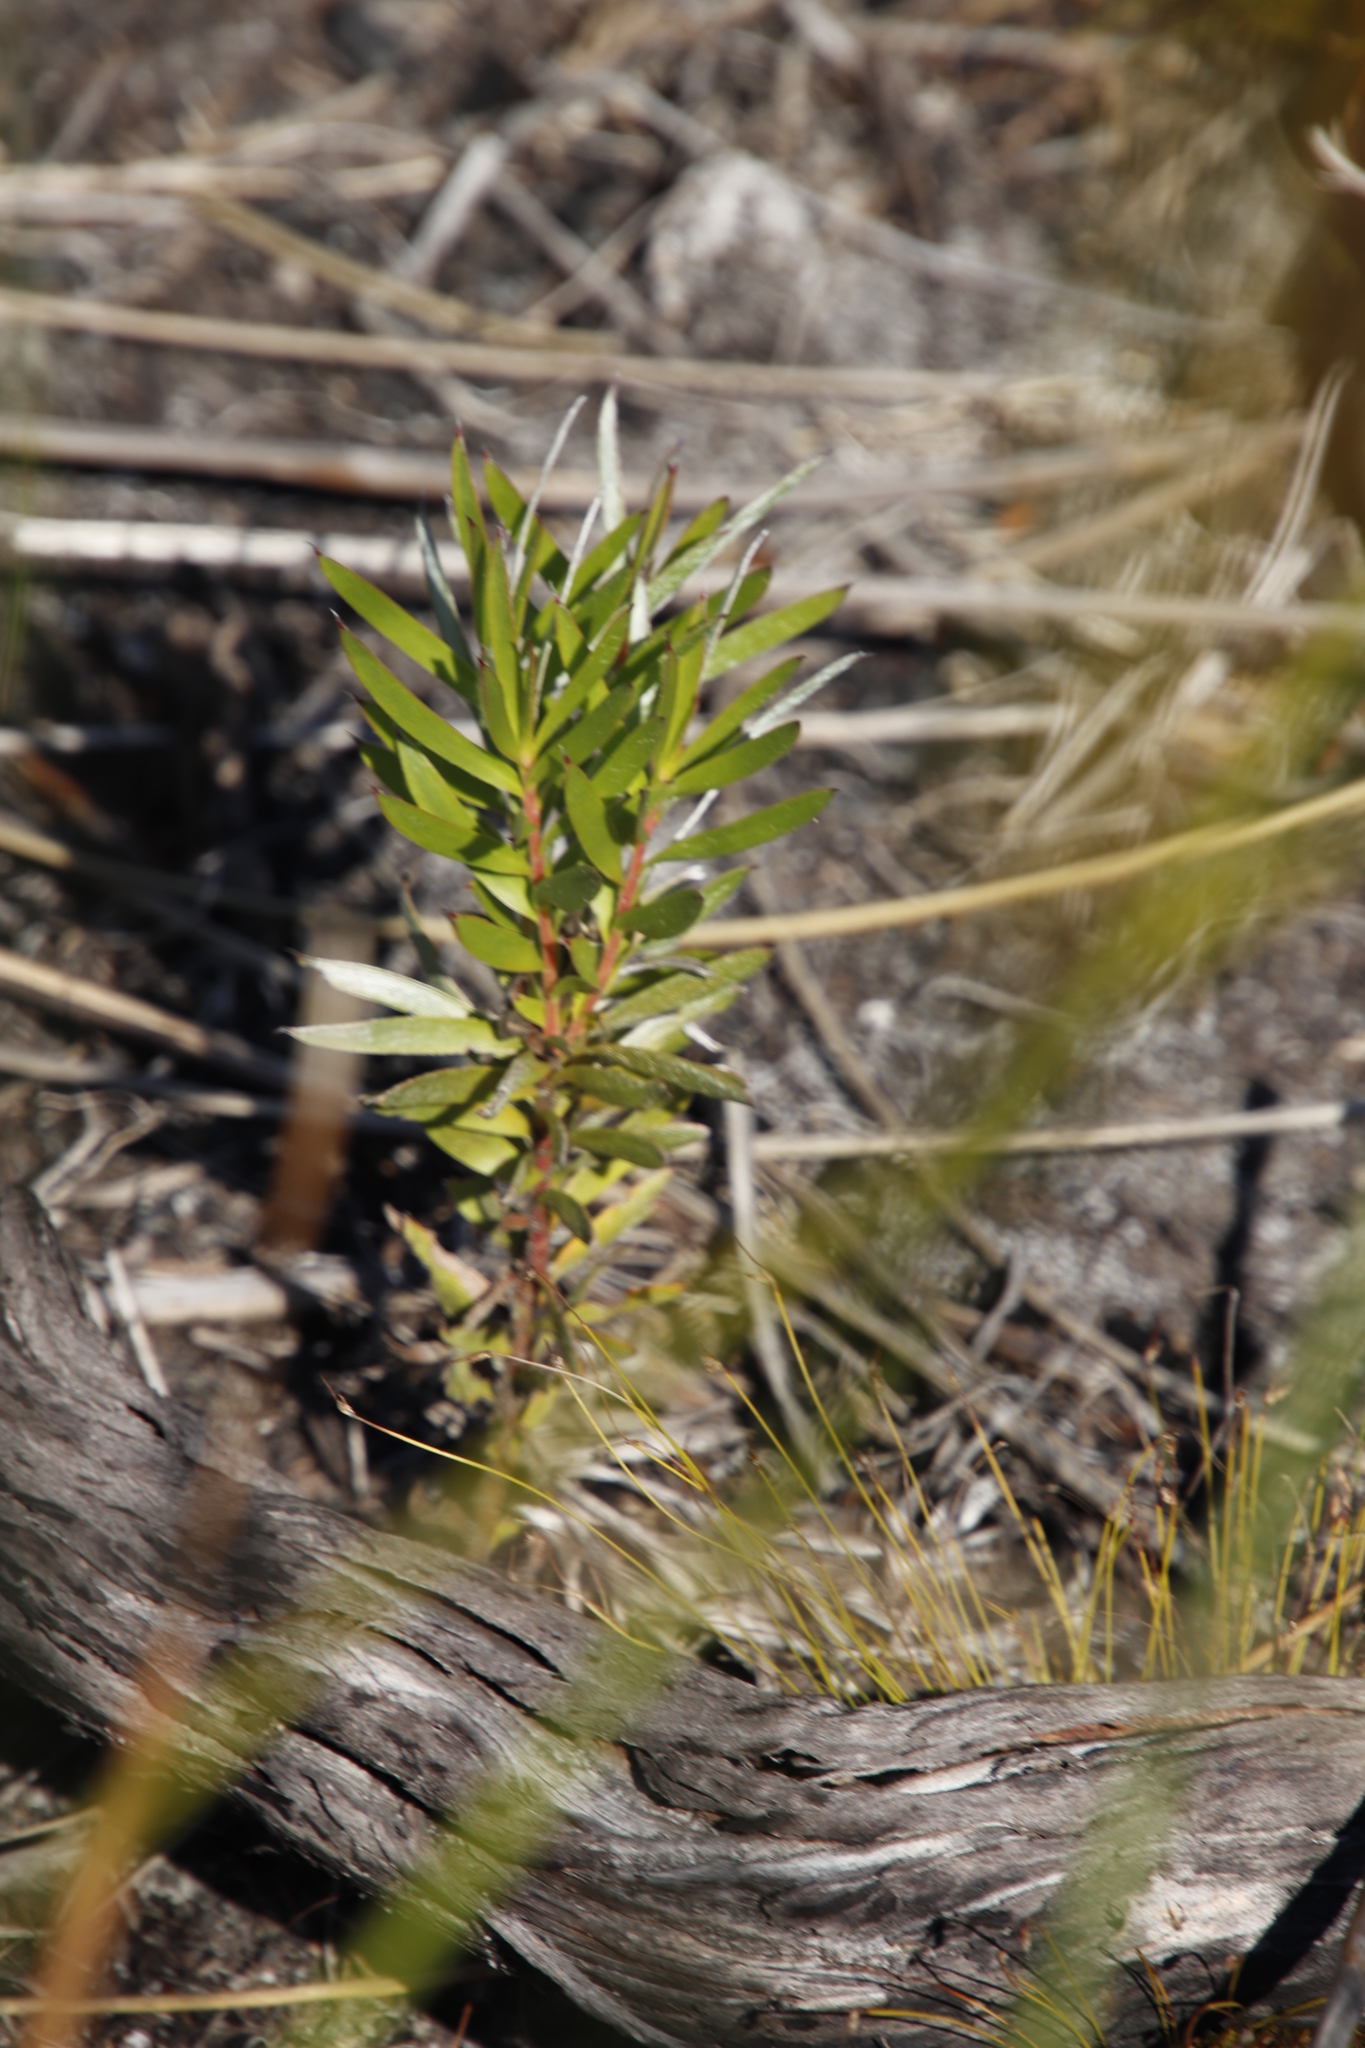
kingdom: Plantae
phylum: Tracheophyta
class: Magnoliopsida
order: Proteales
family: Proteaceae
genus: Leucadendron
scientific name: Leucadendron xanthoconus
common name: Sickle-leaf conebush
